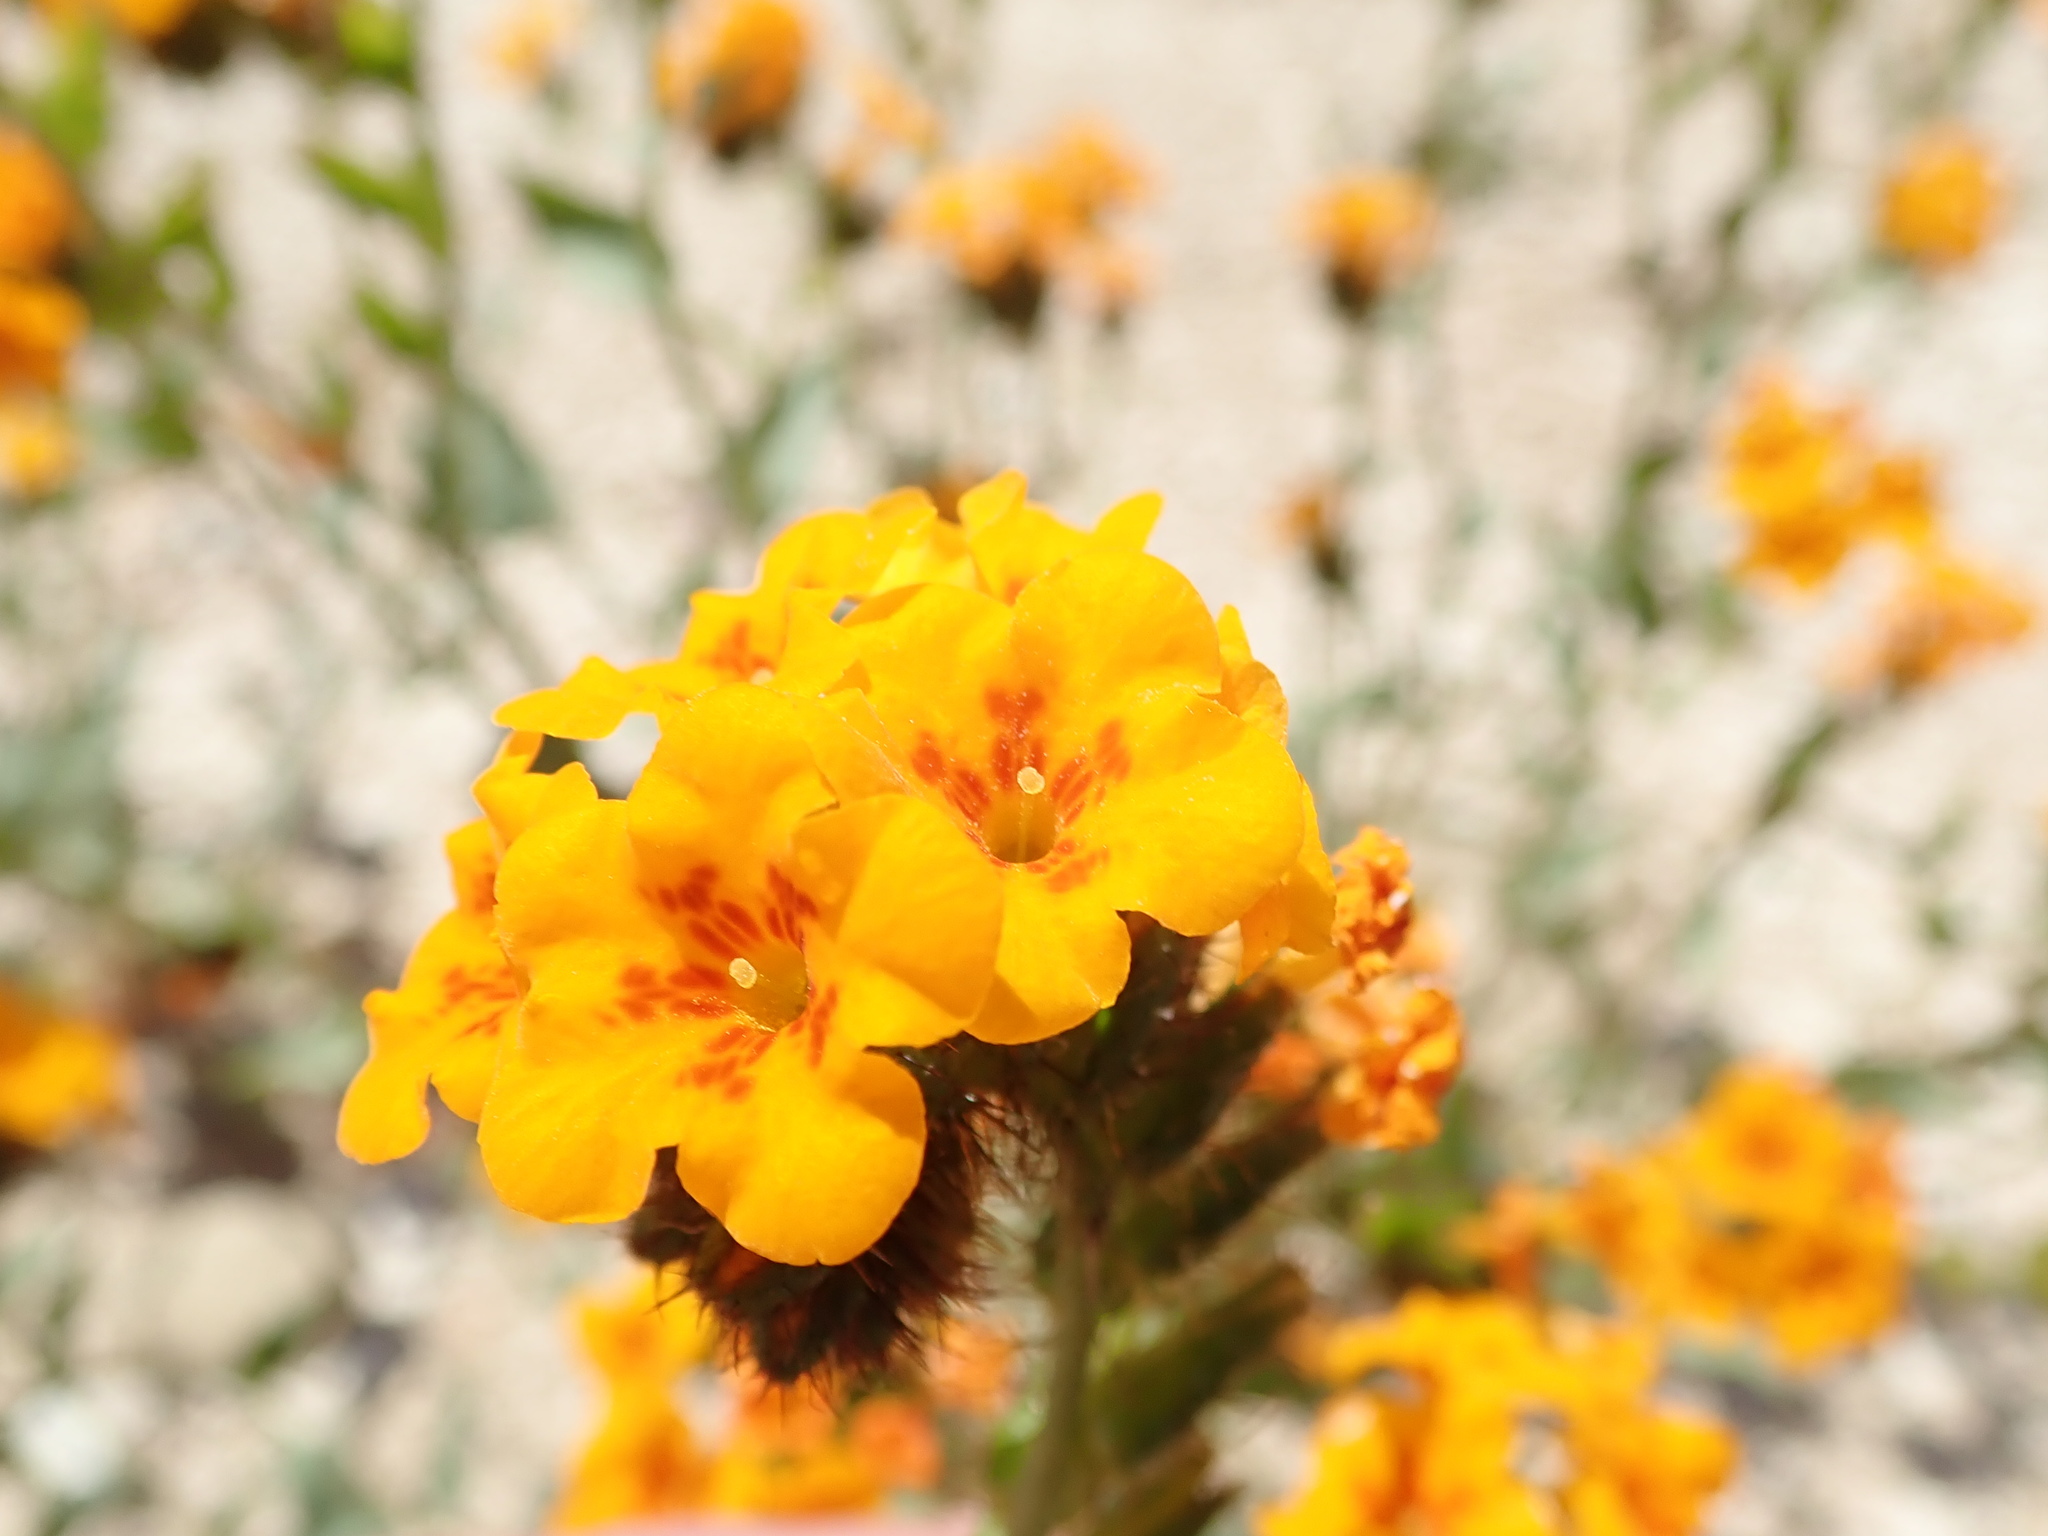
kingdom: Plantae
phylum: Tracheophyta
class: Magnoliopsida
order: Boraginales
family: Boraginaceae
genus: Amsinckia
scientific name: Amsinckia vernicosa
